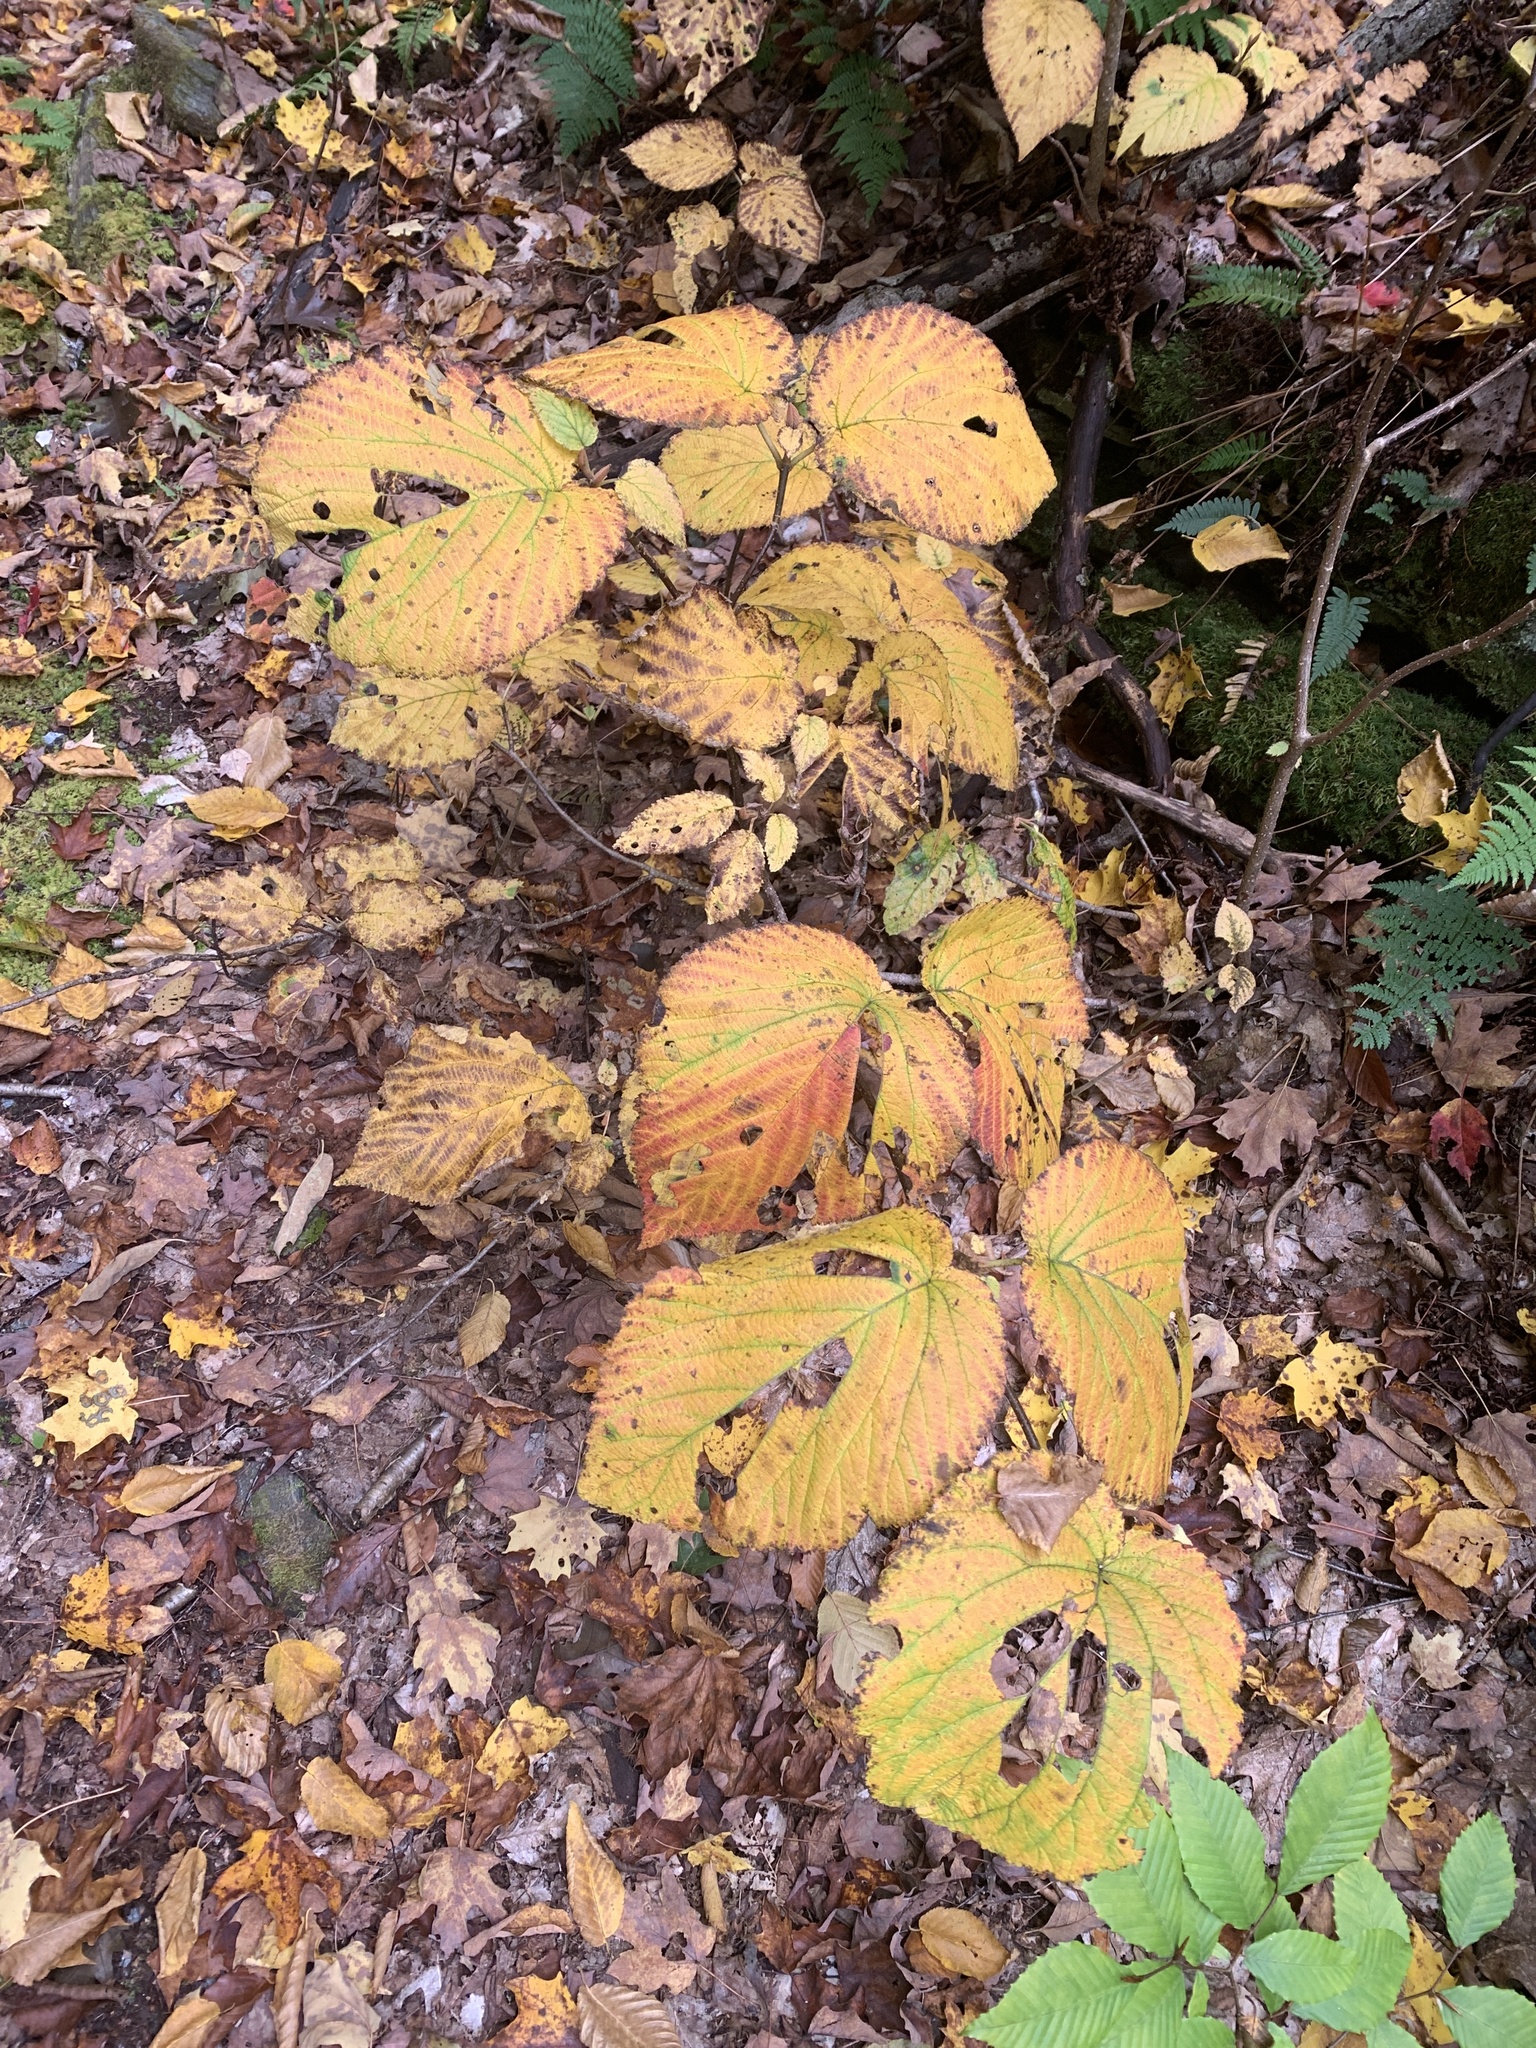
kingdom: Plantae
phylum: Tracheophyta
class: Magnoliopsida
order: Dipsacales
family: Viburnaceae
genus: Viburnum
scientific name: Viburnum lantanoides
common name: Hobblebush
